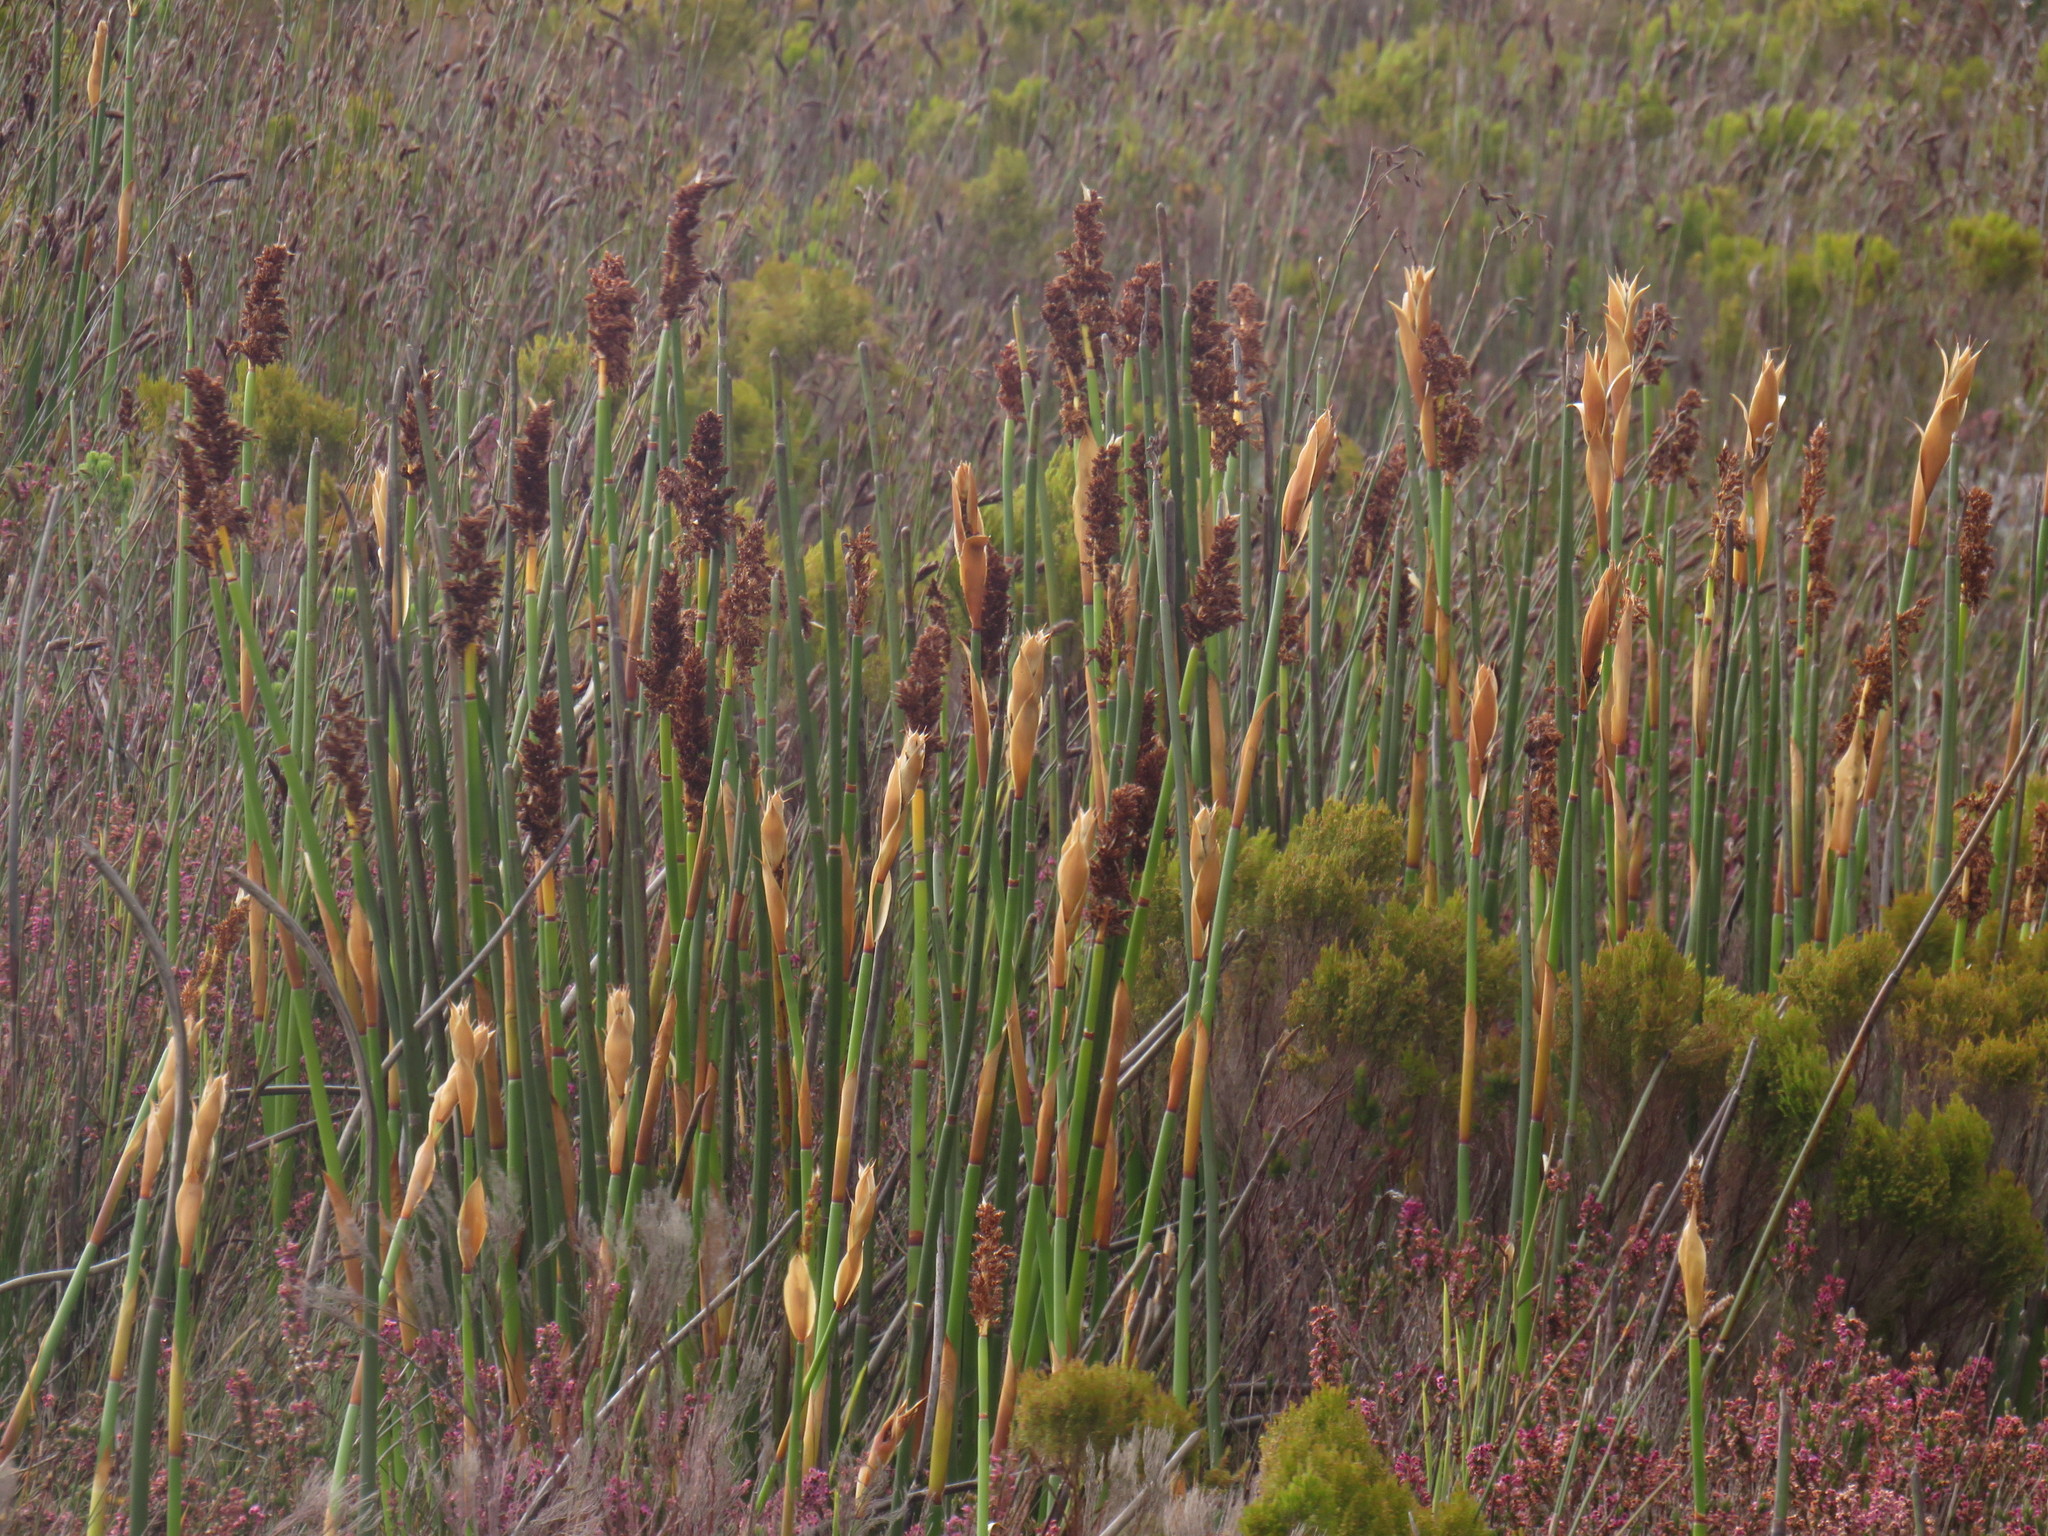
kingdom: Plantae
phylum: Tracheophyta
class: Liliopsida
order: Poales
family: Restionaceae
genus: Elegia
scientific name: Elegia mucronata
